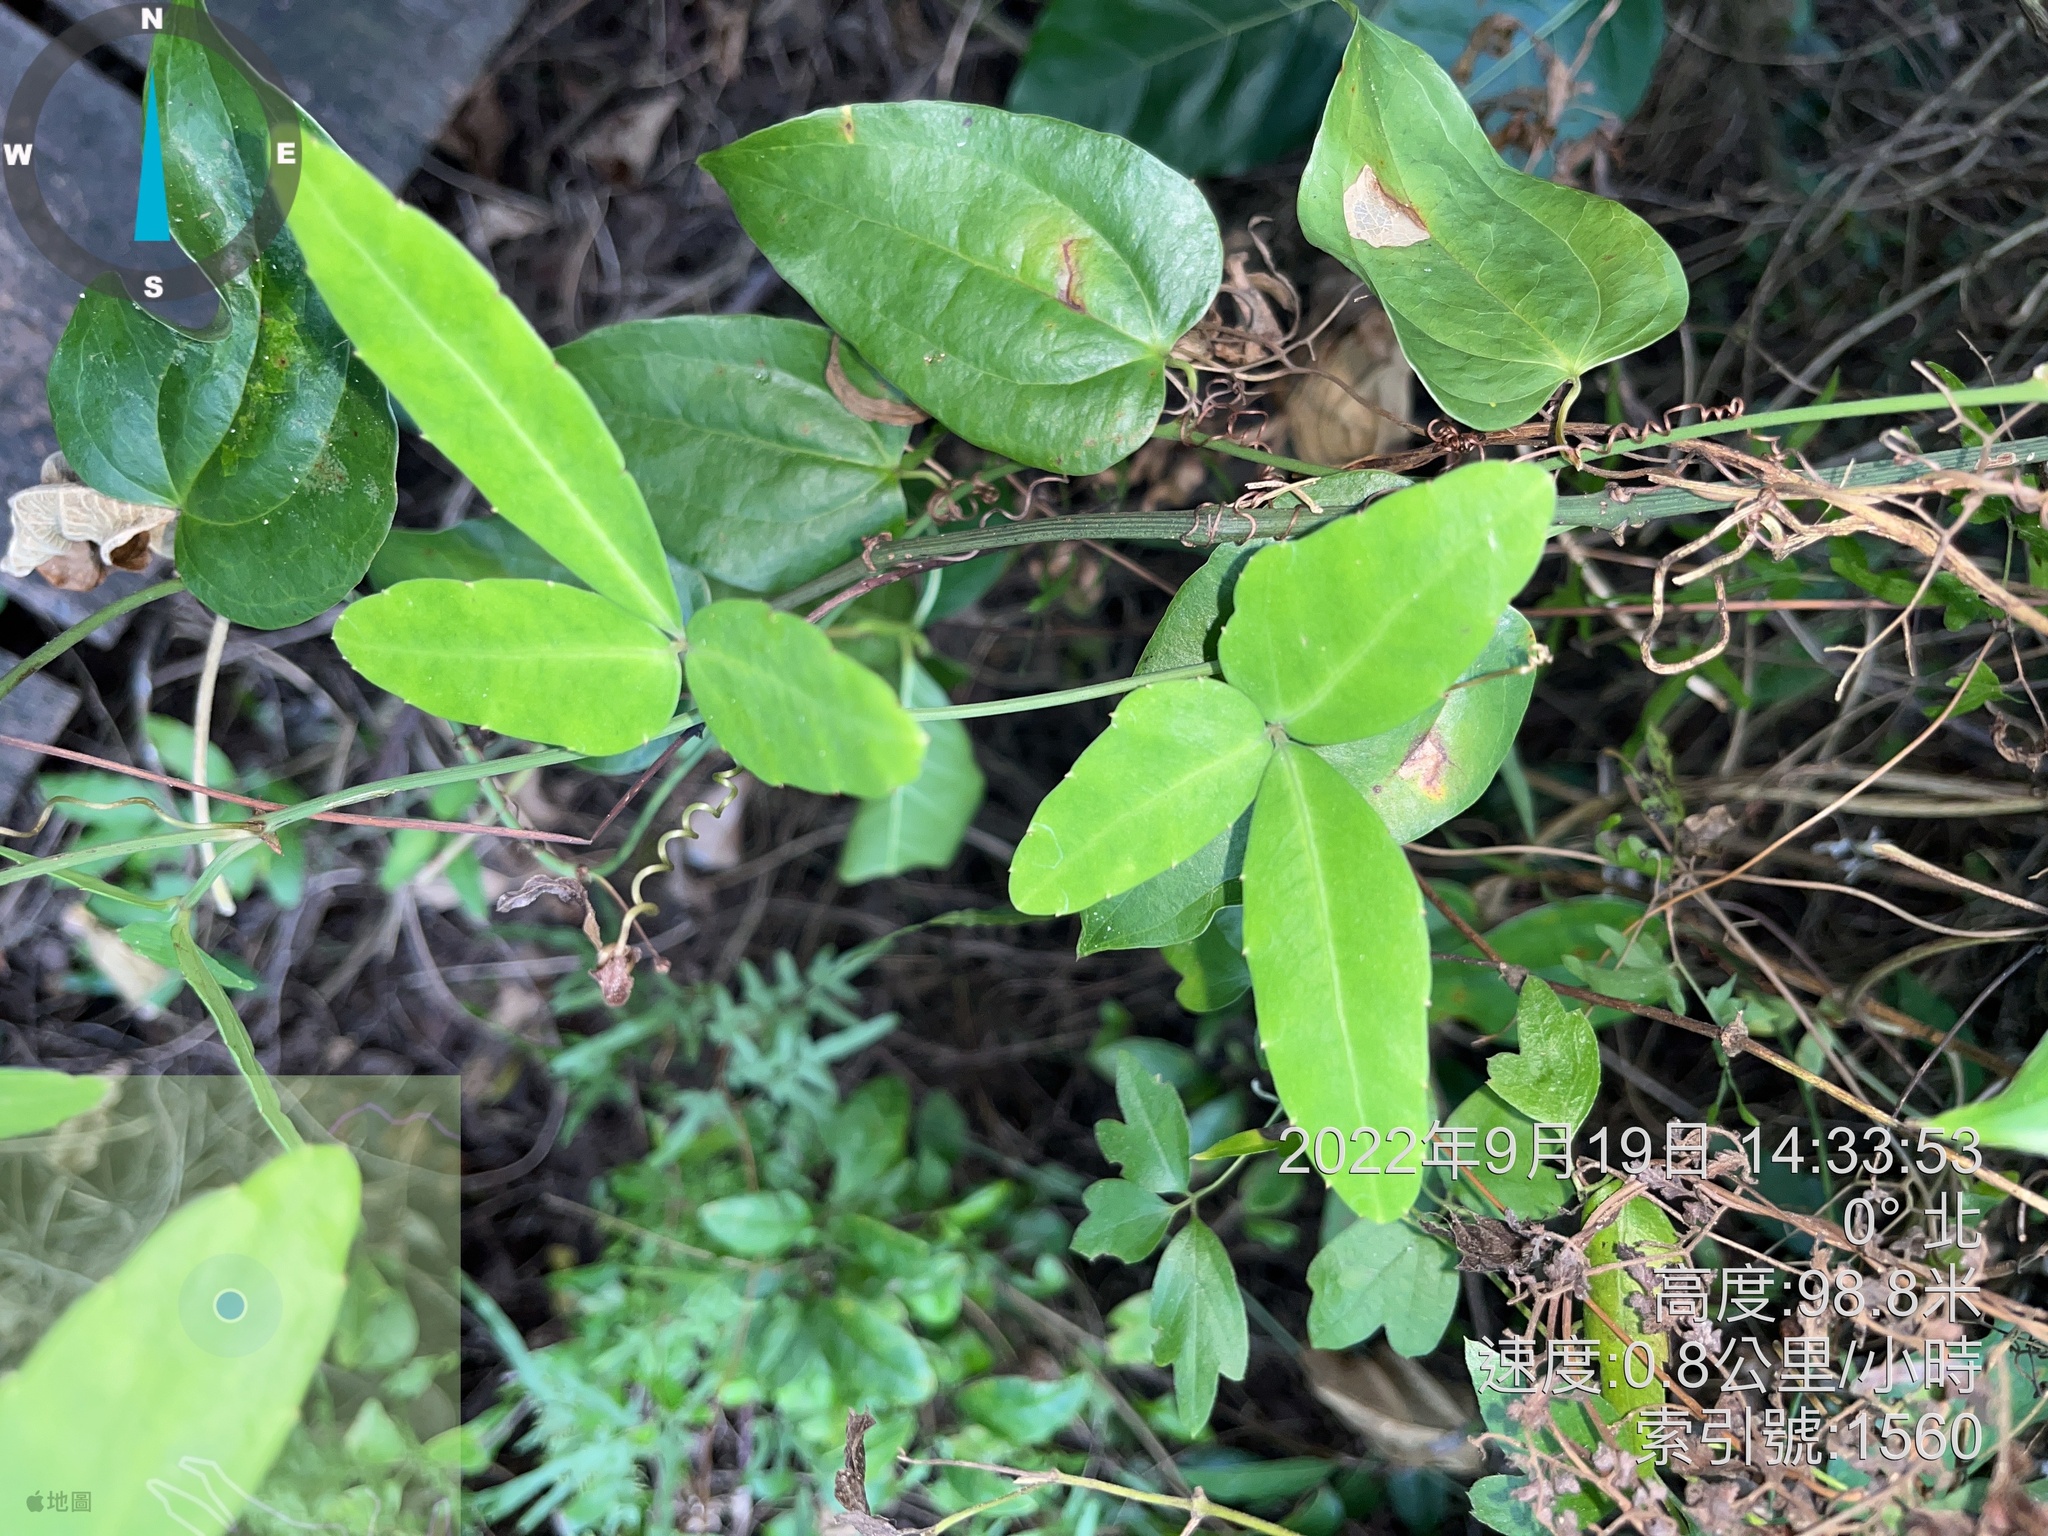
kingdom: Plantae
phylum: Tracheophyta
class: Magnoliopsida
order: Fabales
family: Fabaceae
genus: Mucuna
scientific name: Mucuna macrocarpa
